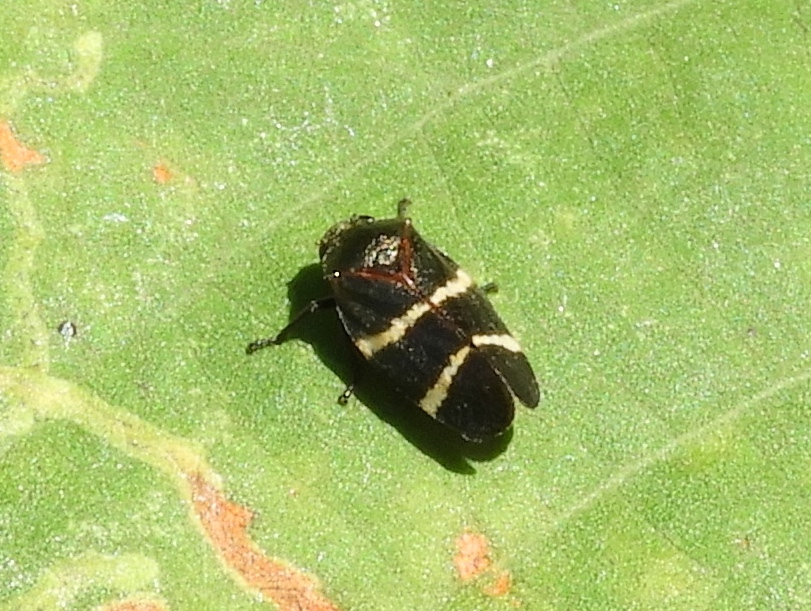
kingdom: Animalia
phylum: Arthropoda
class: Insecta
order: Hemiptera
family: Cercopidae
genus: Aeneolamia
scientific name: Aeneolamia albofasciata
